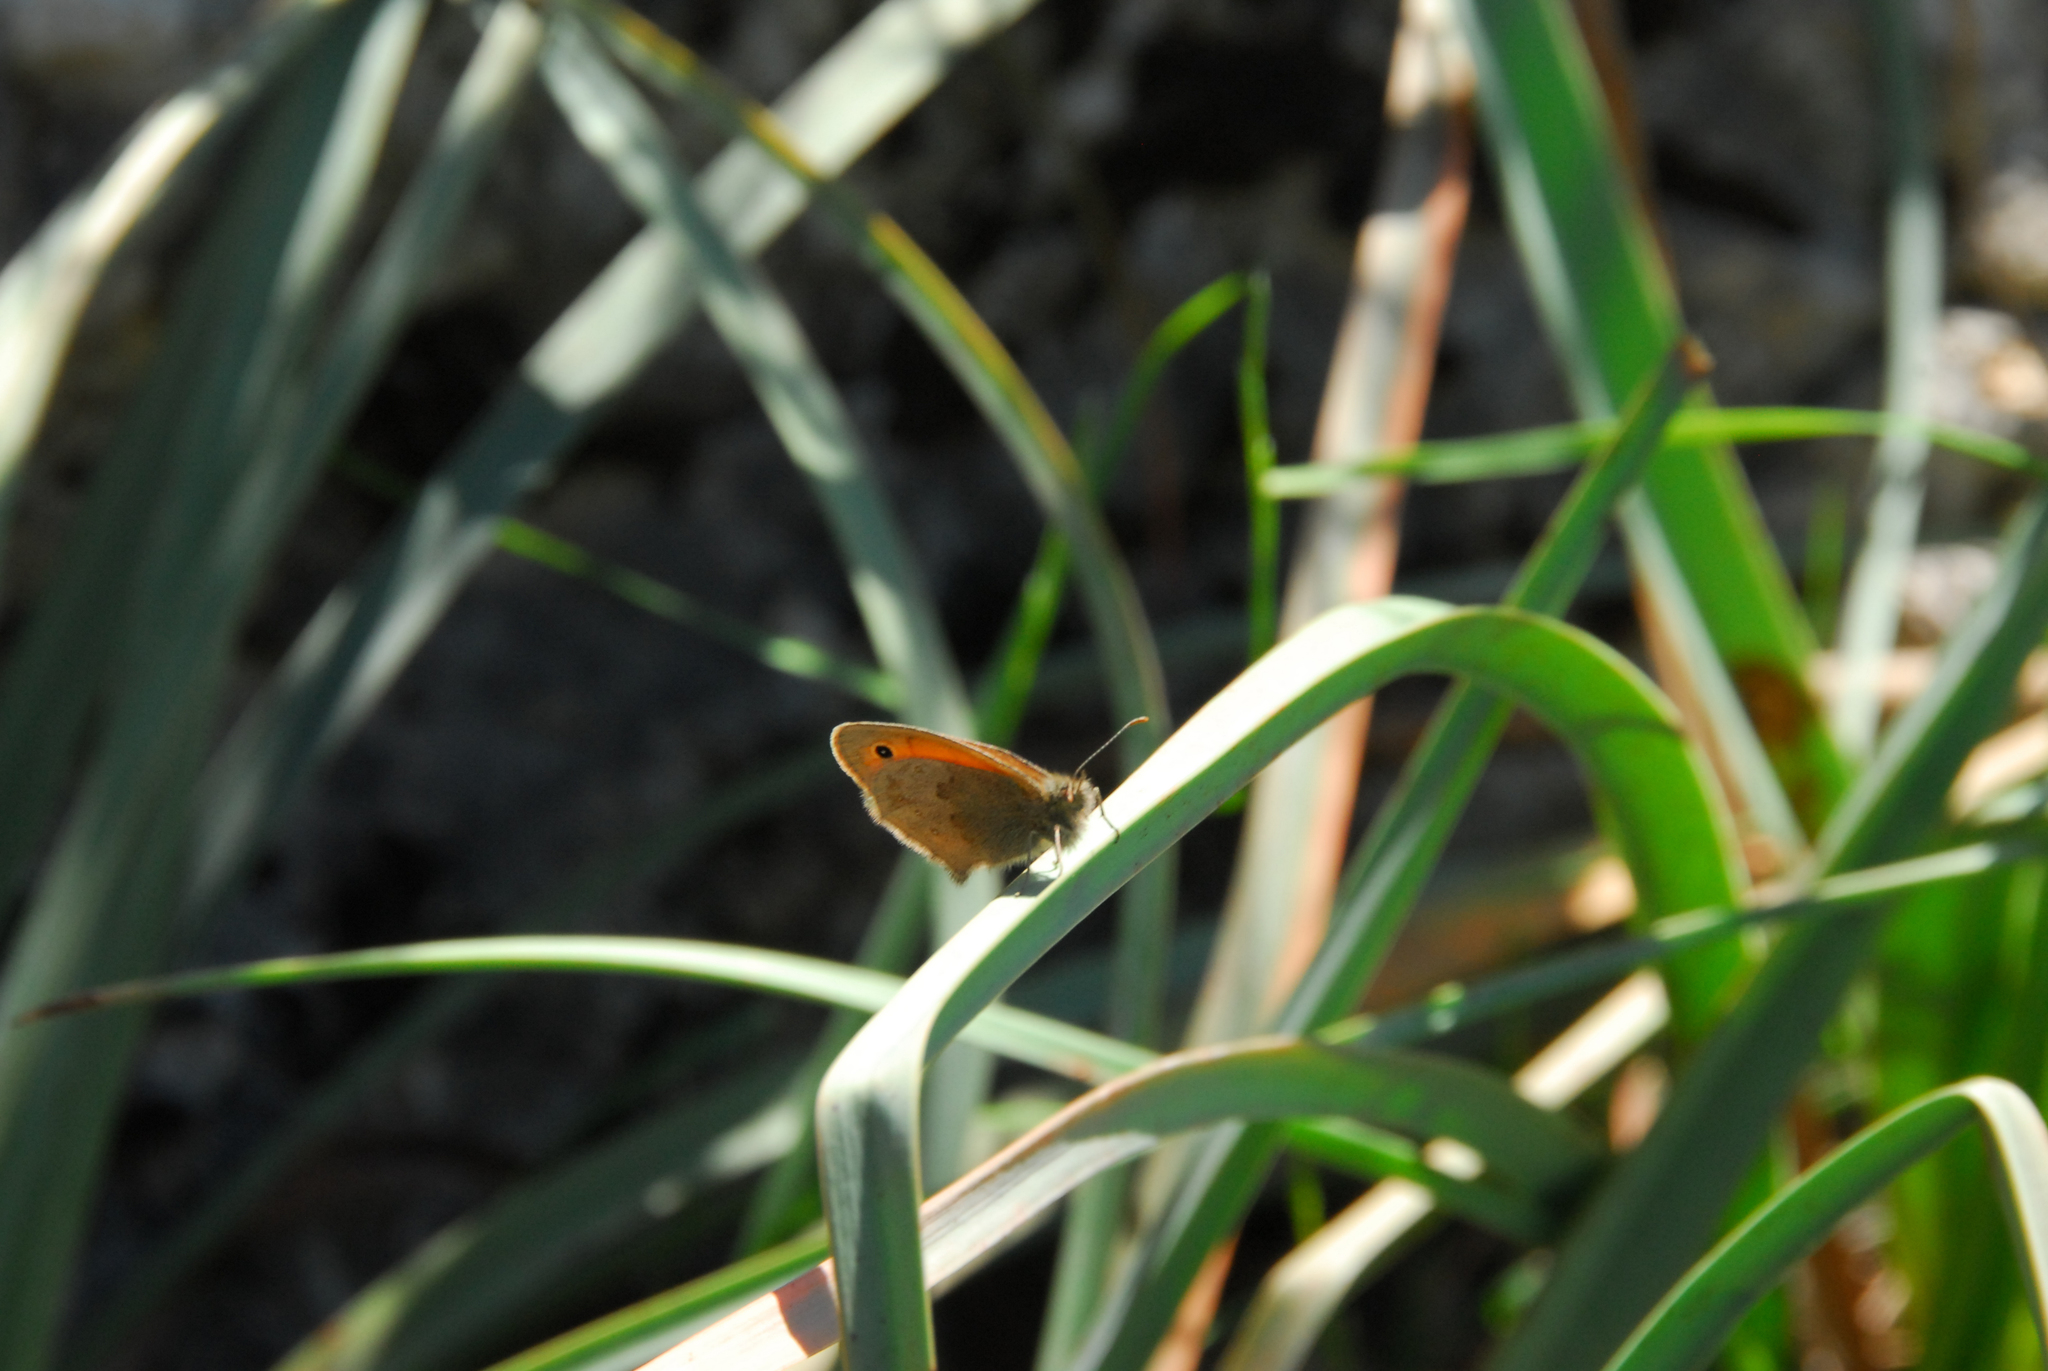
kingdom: Animalia
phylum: Arthropoda
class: Insecta
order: Lepidoptera
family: Nymphalidae
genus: Coenonympha
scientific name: Coenonympha pamphilus
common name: Small heath
